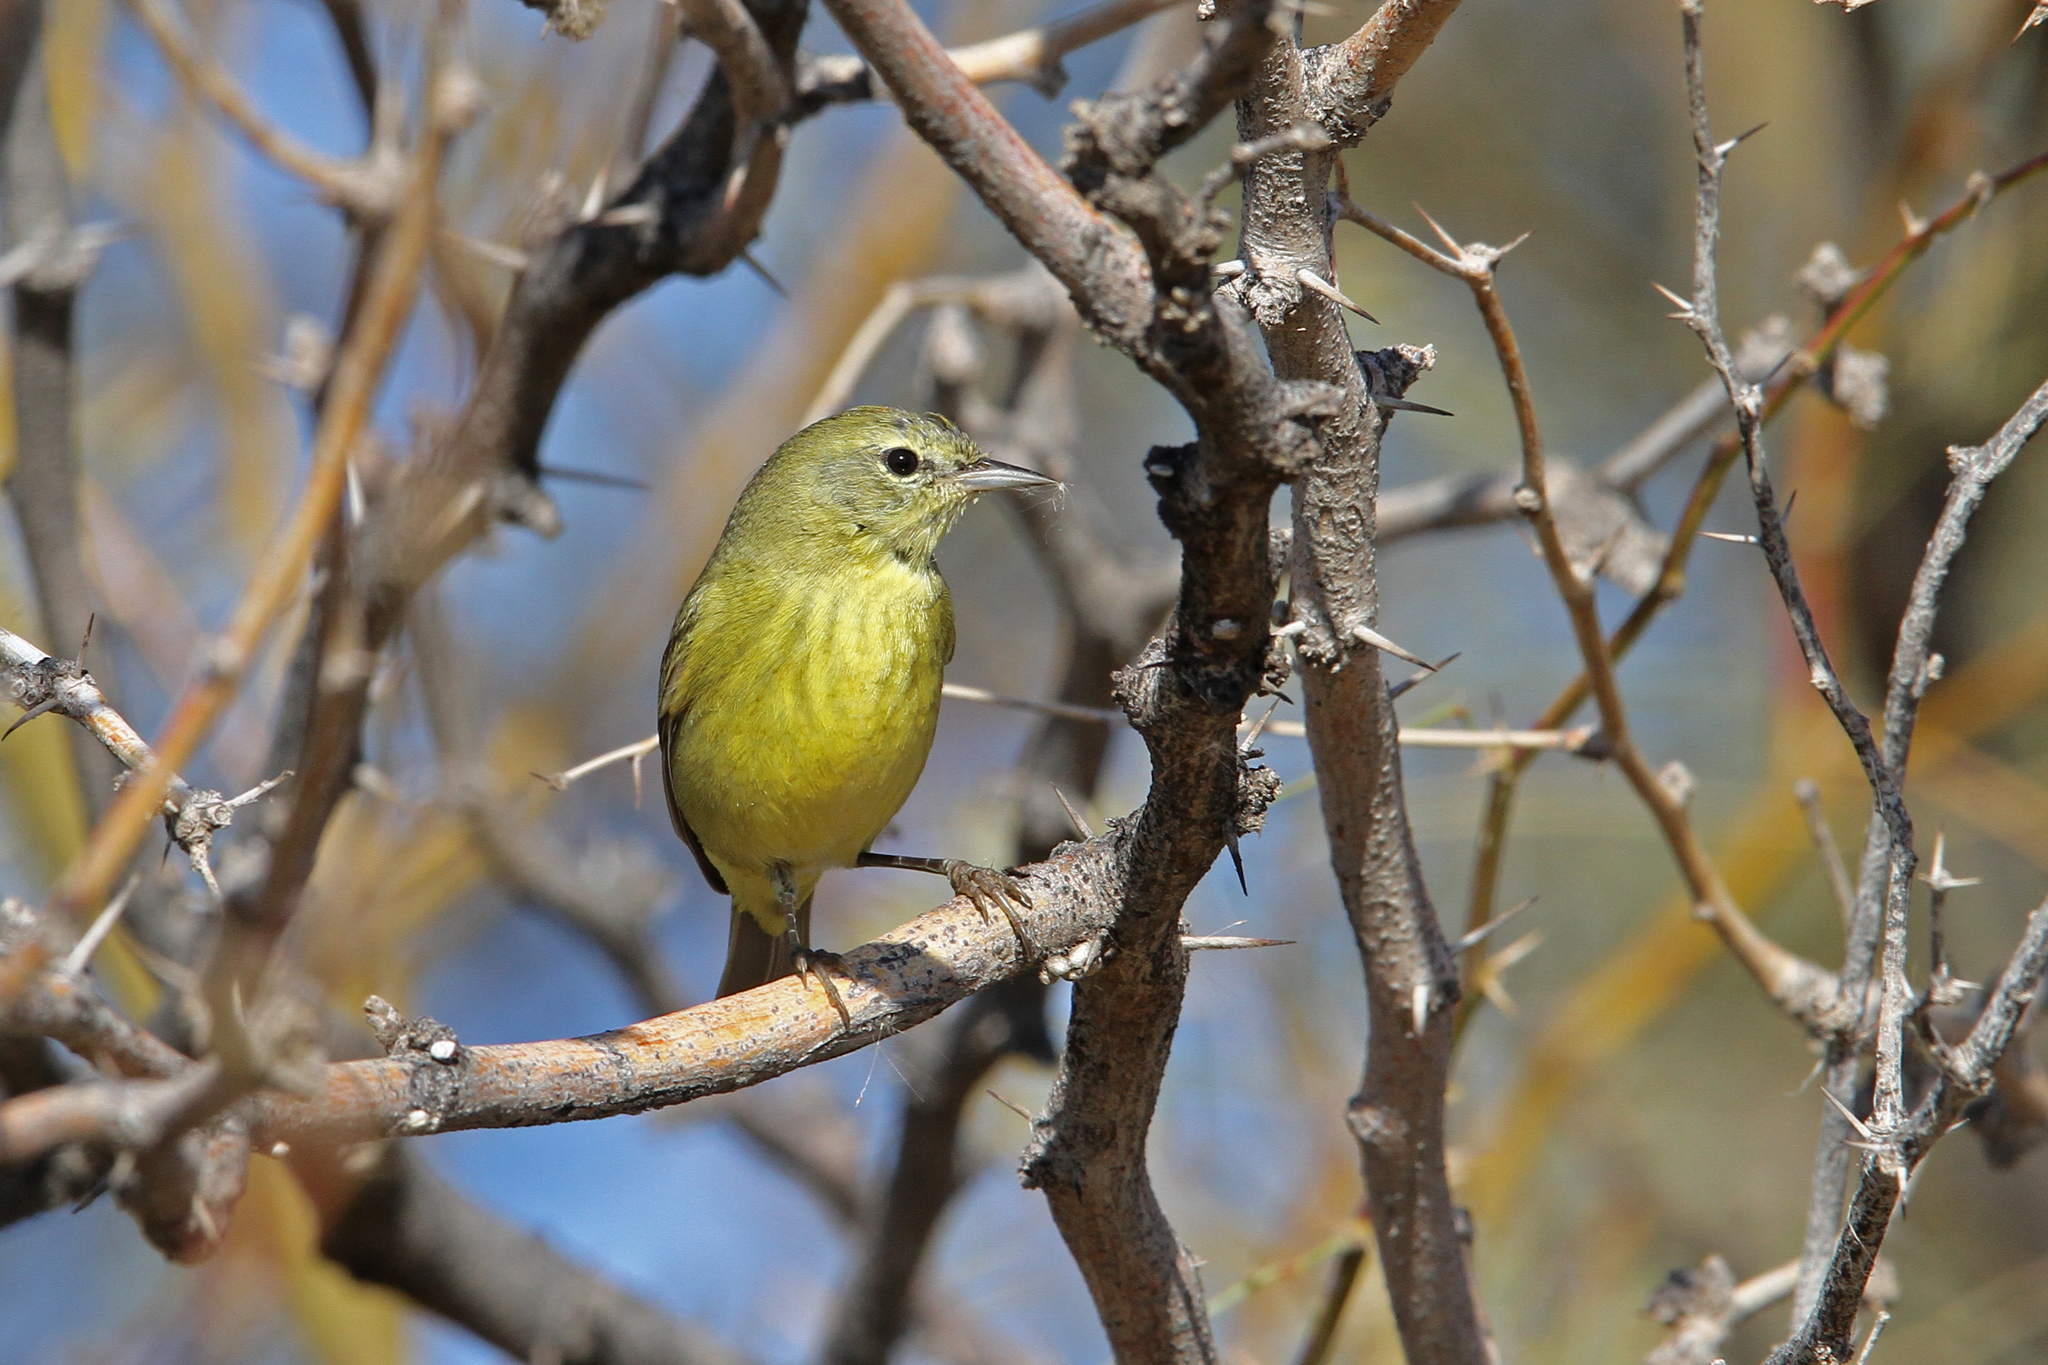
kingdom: Animalia
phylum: Chordata
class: Aves
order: Passeriformes
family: Parulidae
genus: Leiothlypis
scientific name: Leiothlypis celata
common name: Orange-crowned warbler
